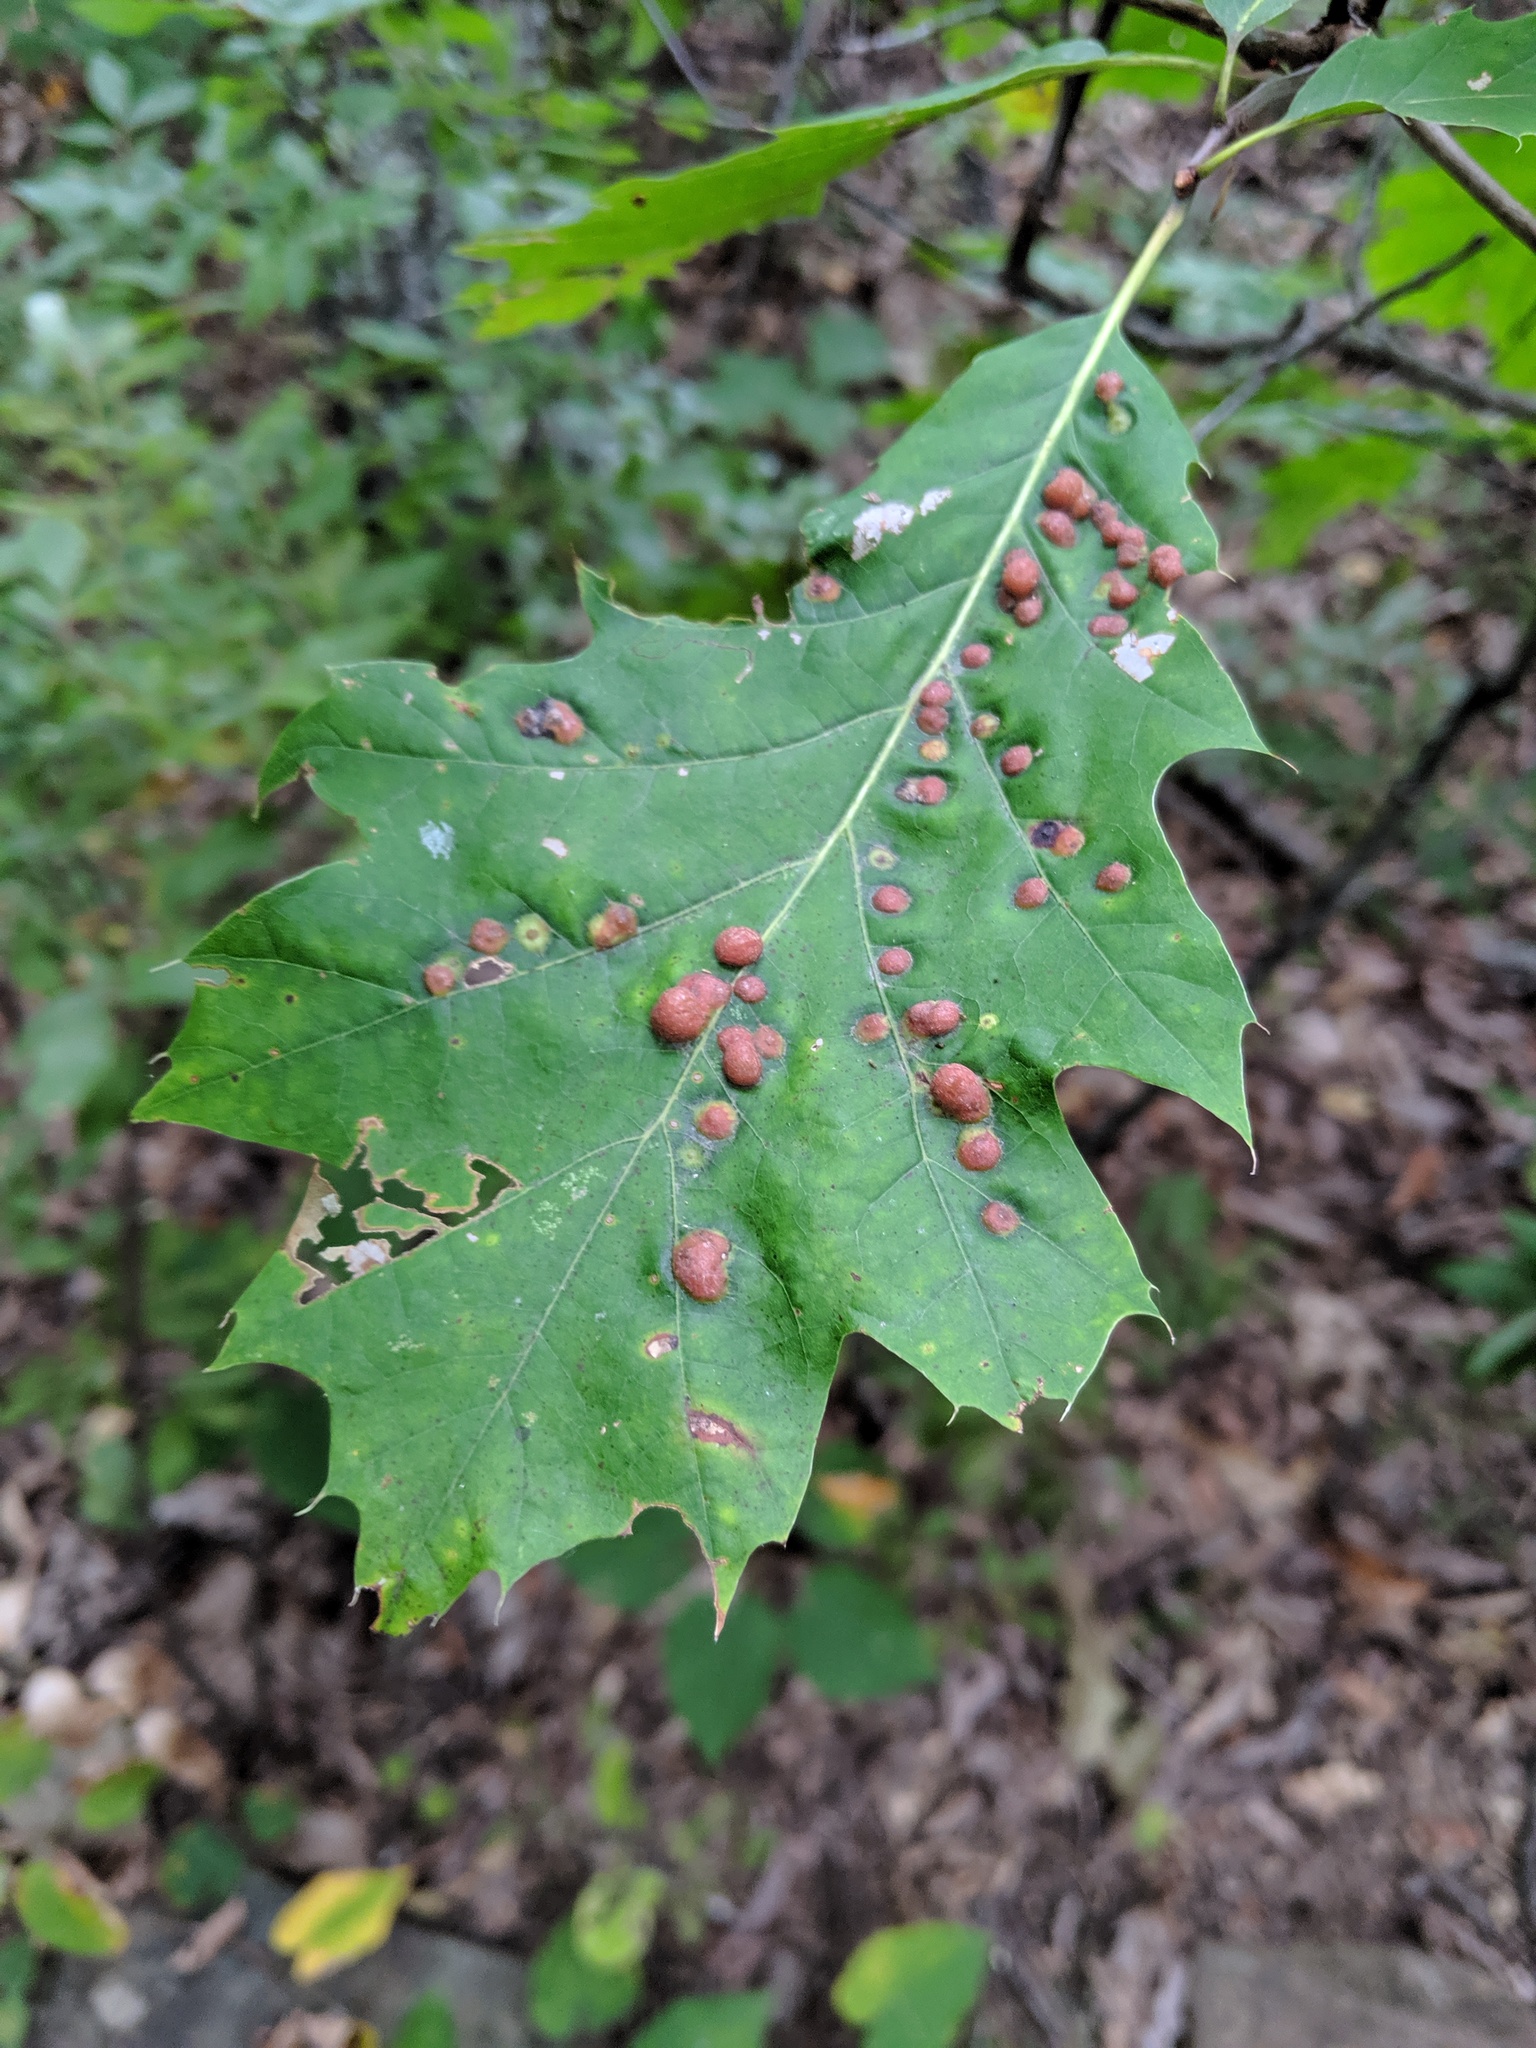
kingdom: Plantae
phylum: Tracheophyta
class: Magnoliopsida
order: Fagales
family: Fagaceae
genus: Quercus
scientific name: Quercus rubra
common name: Red oak
